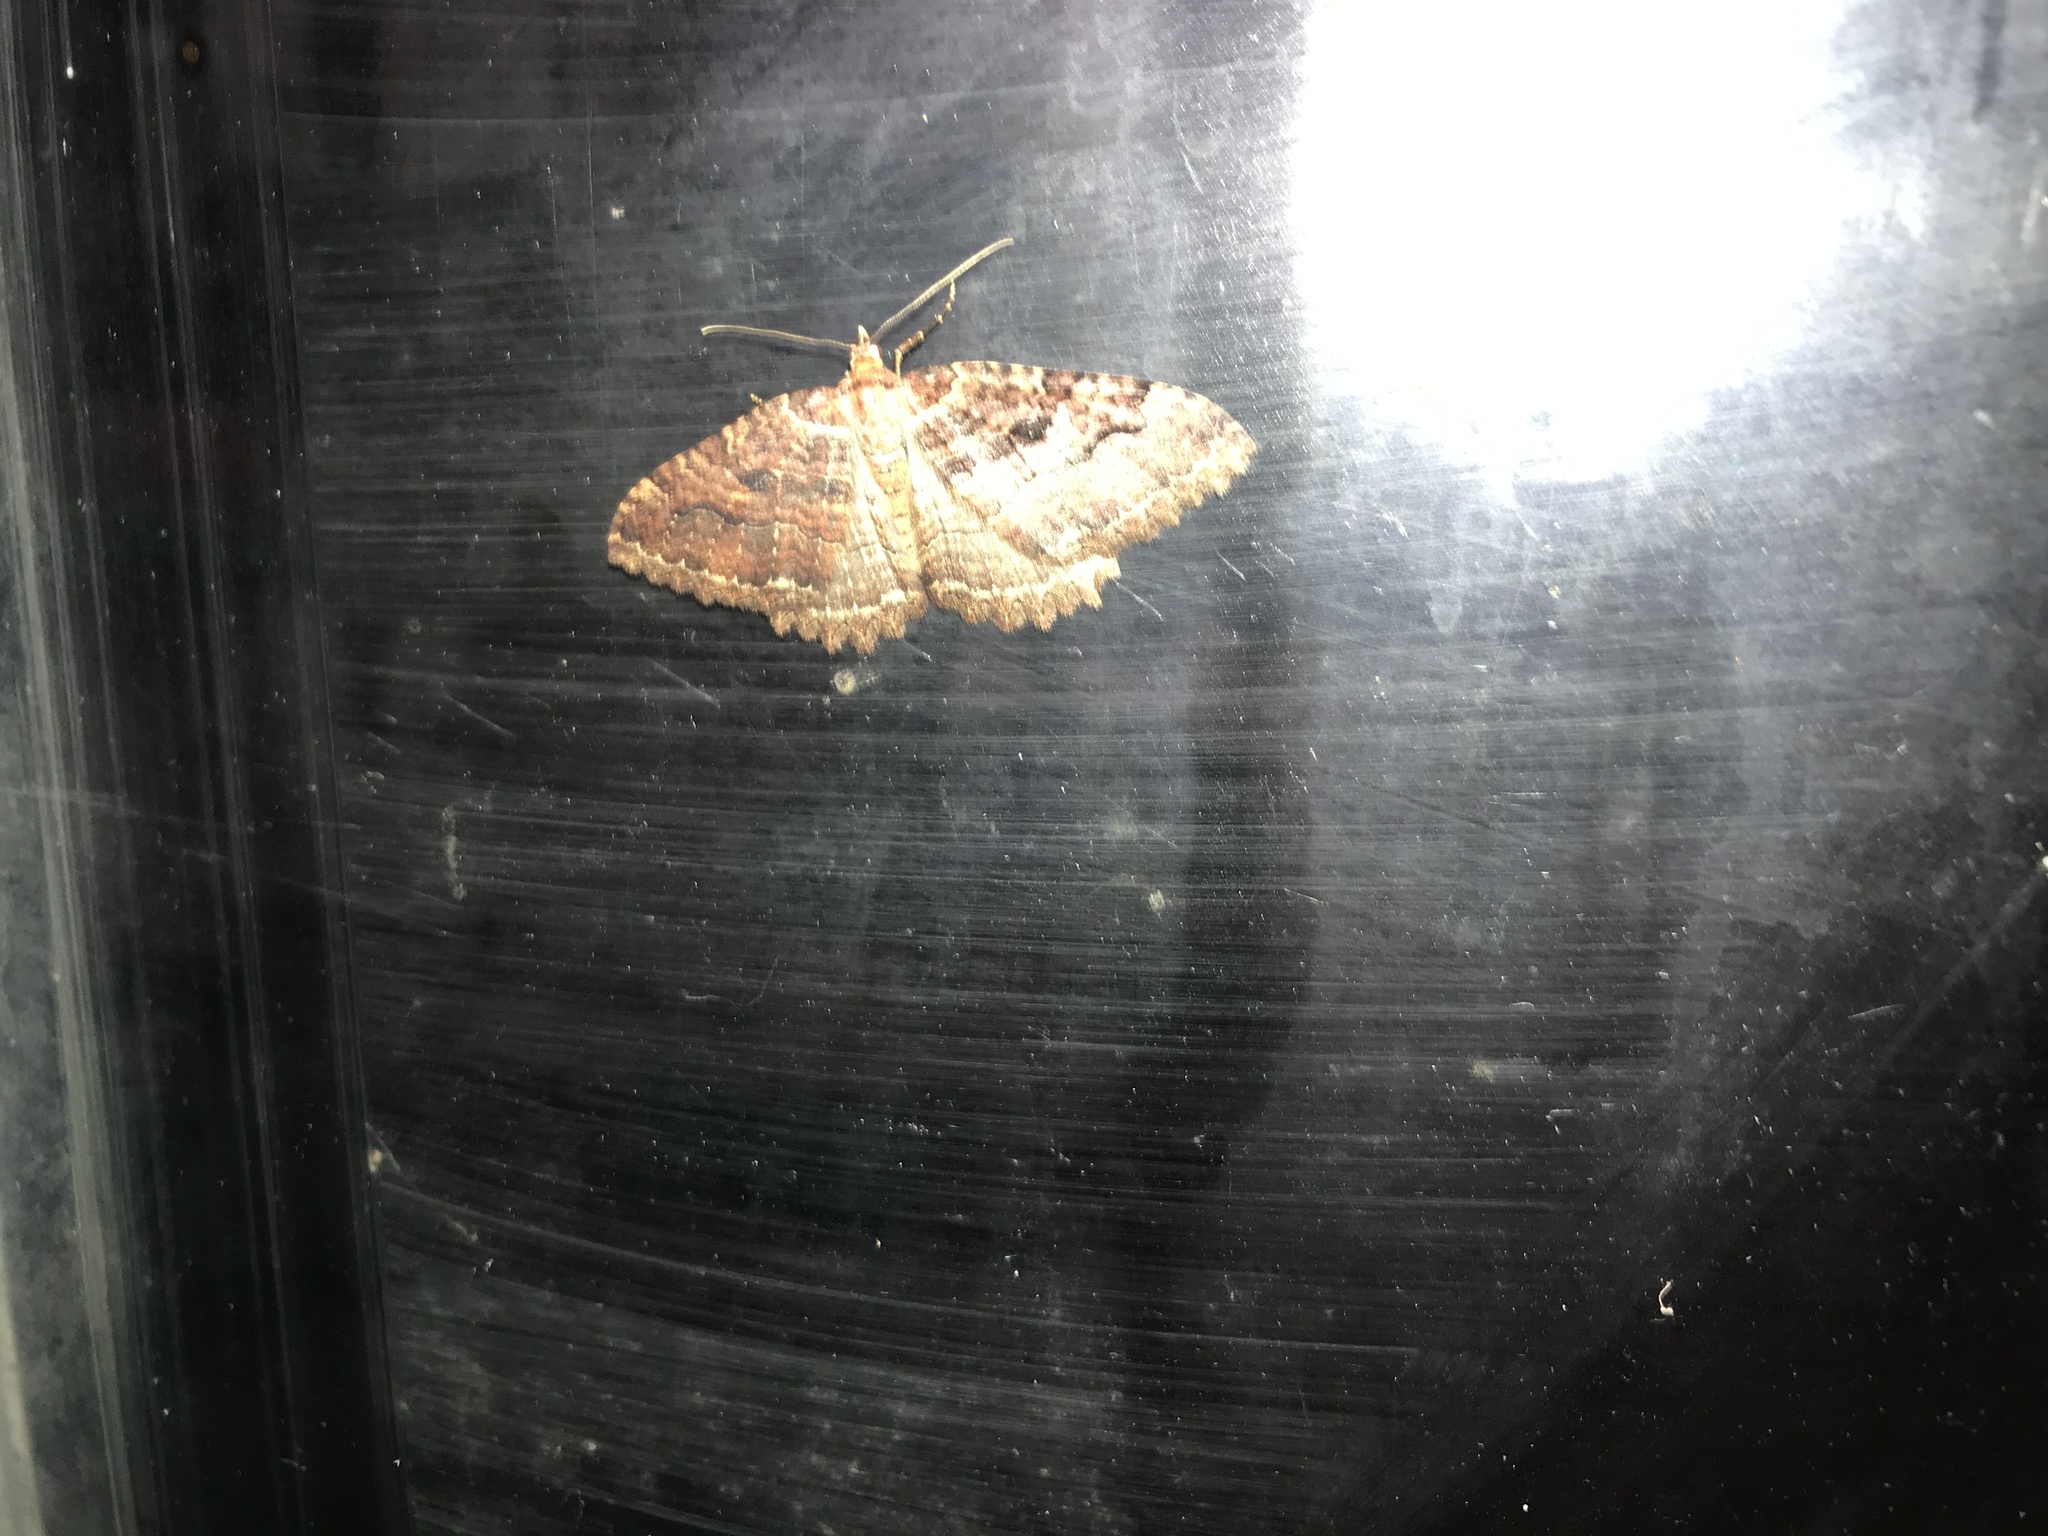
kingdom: Animalia
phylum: Arthropoda
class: Insecta
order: Lepidoptera
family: Geometridae
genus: Triphosa
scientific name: Triphosa haesitata
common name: Tissue moth
